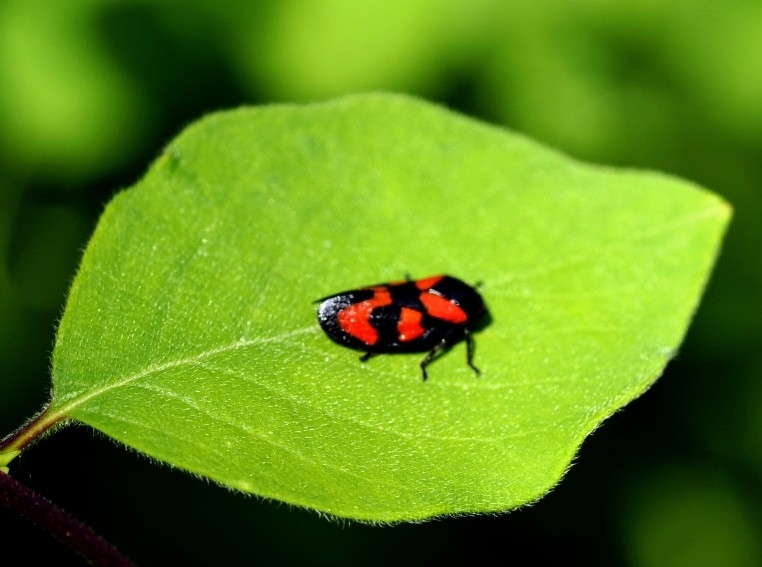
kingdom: Animalia
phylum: Arthropoda
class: Insecta
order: Hemiptera
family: Cercopidae
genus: Cercopis
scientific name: Cercopis vulnerata
